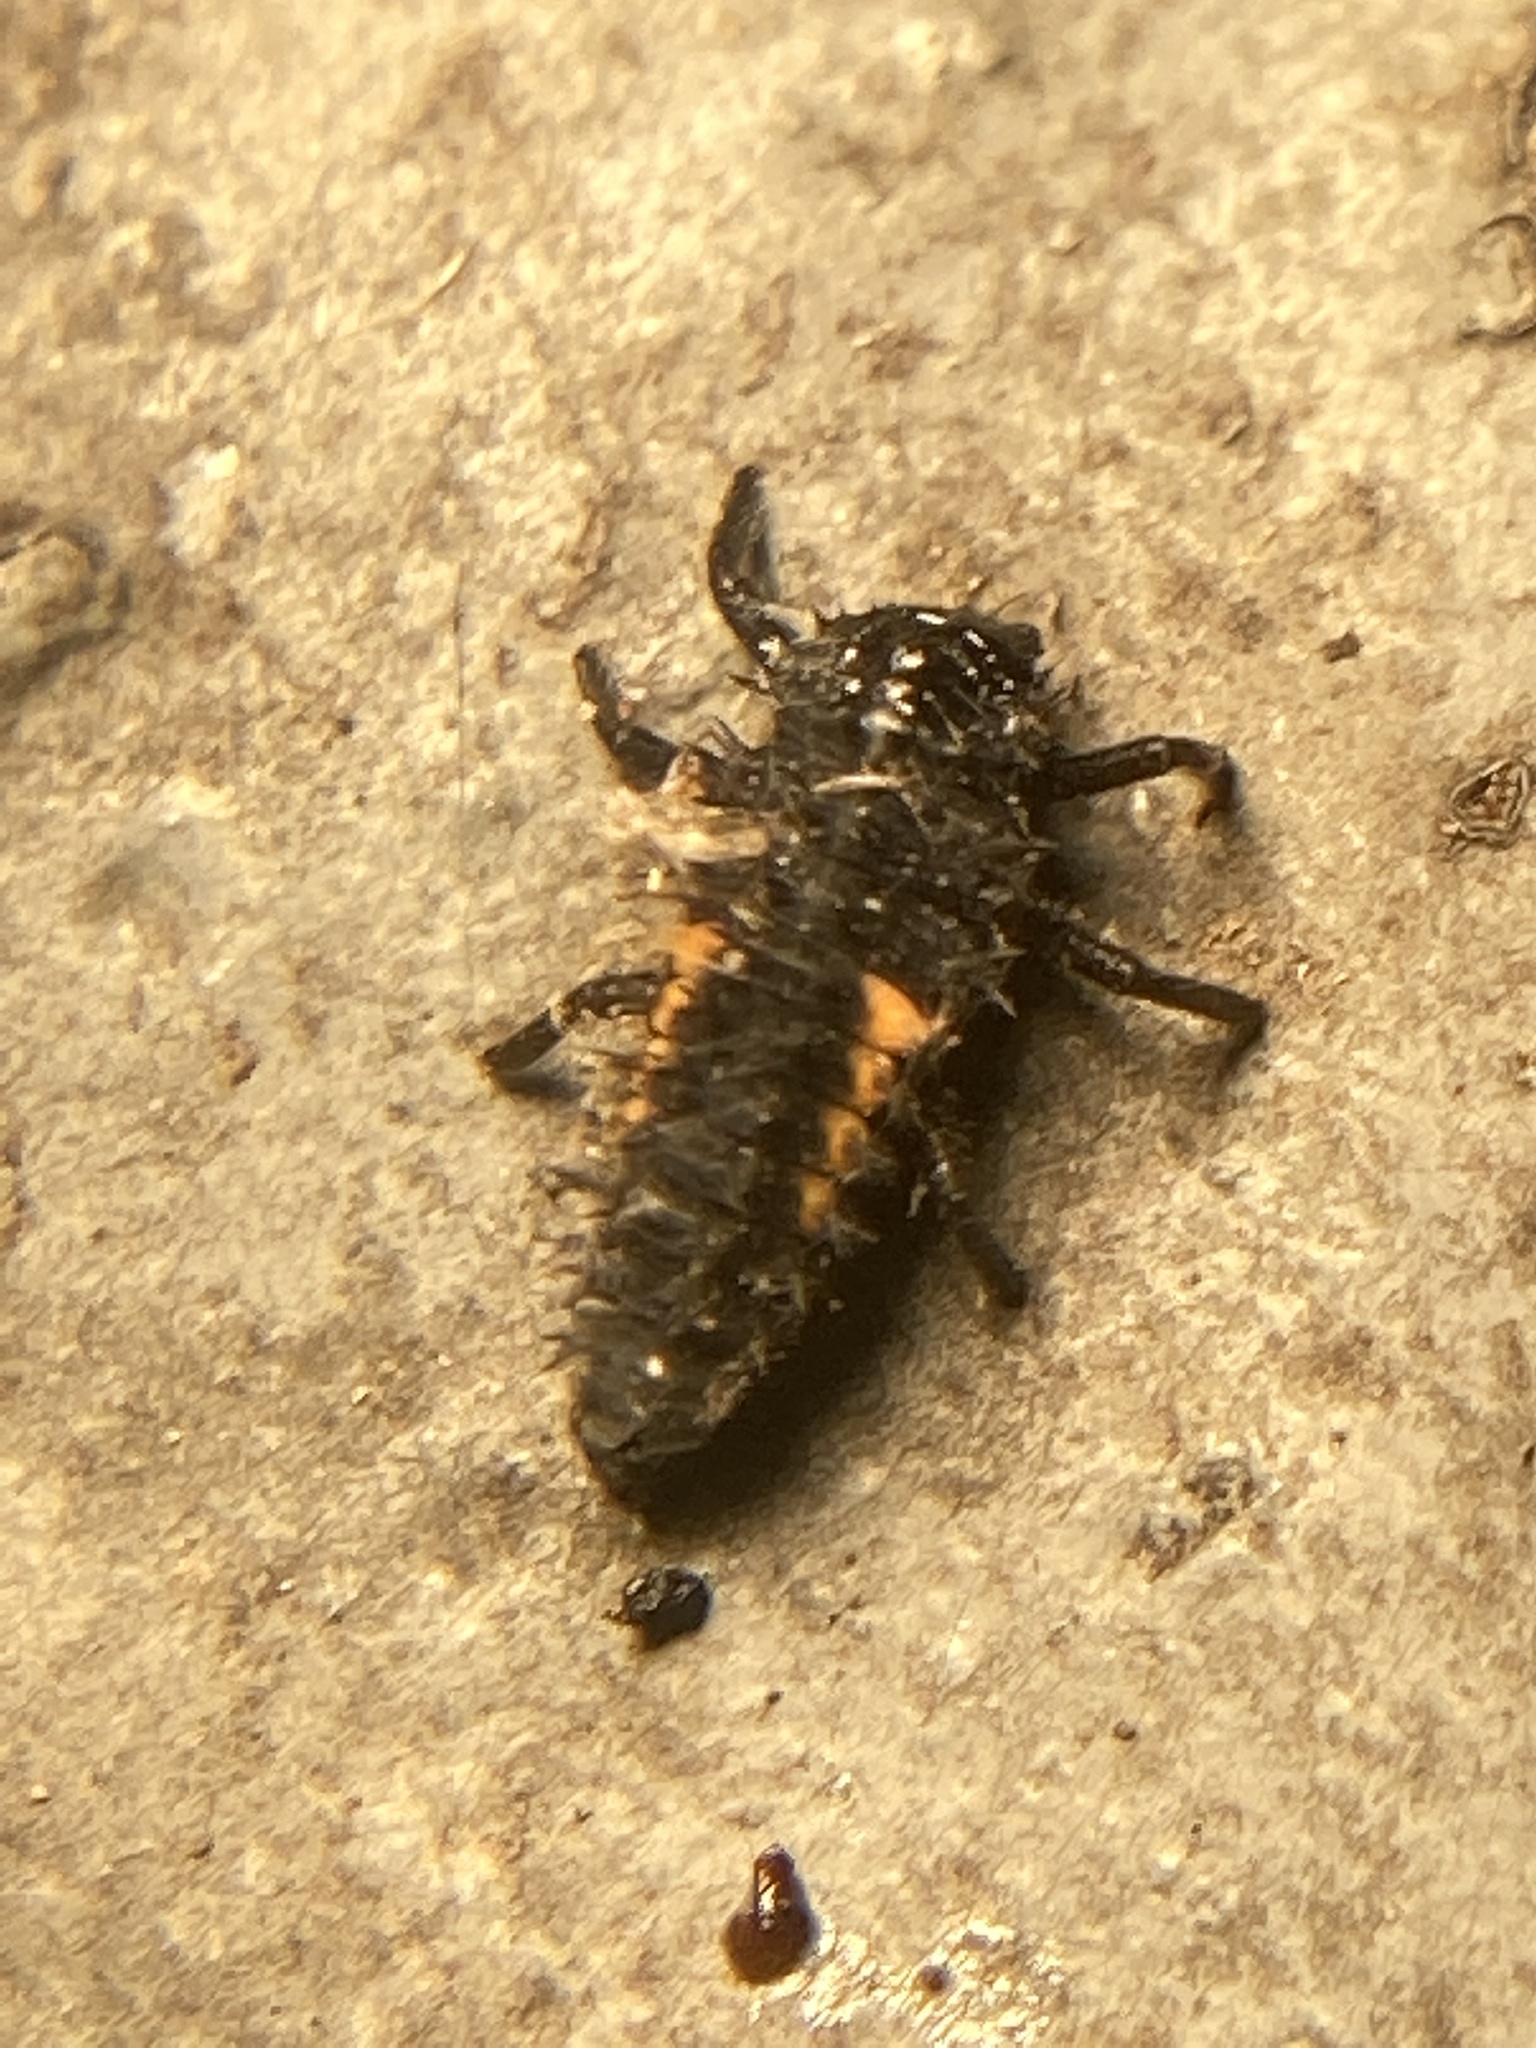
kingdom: Animalia
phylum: Arthropoda
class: Insecta
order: Coleoptera
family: Coccinellidae
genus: Harmonia
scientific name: Harmonia axyridis
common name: Harlequin ladybird
